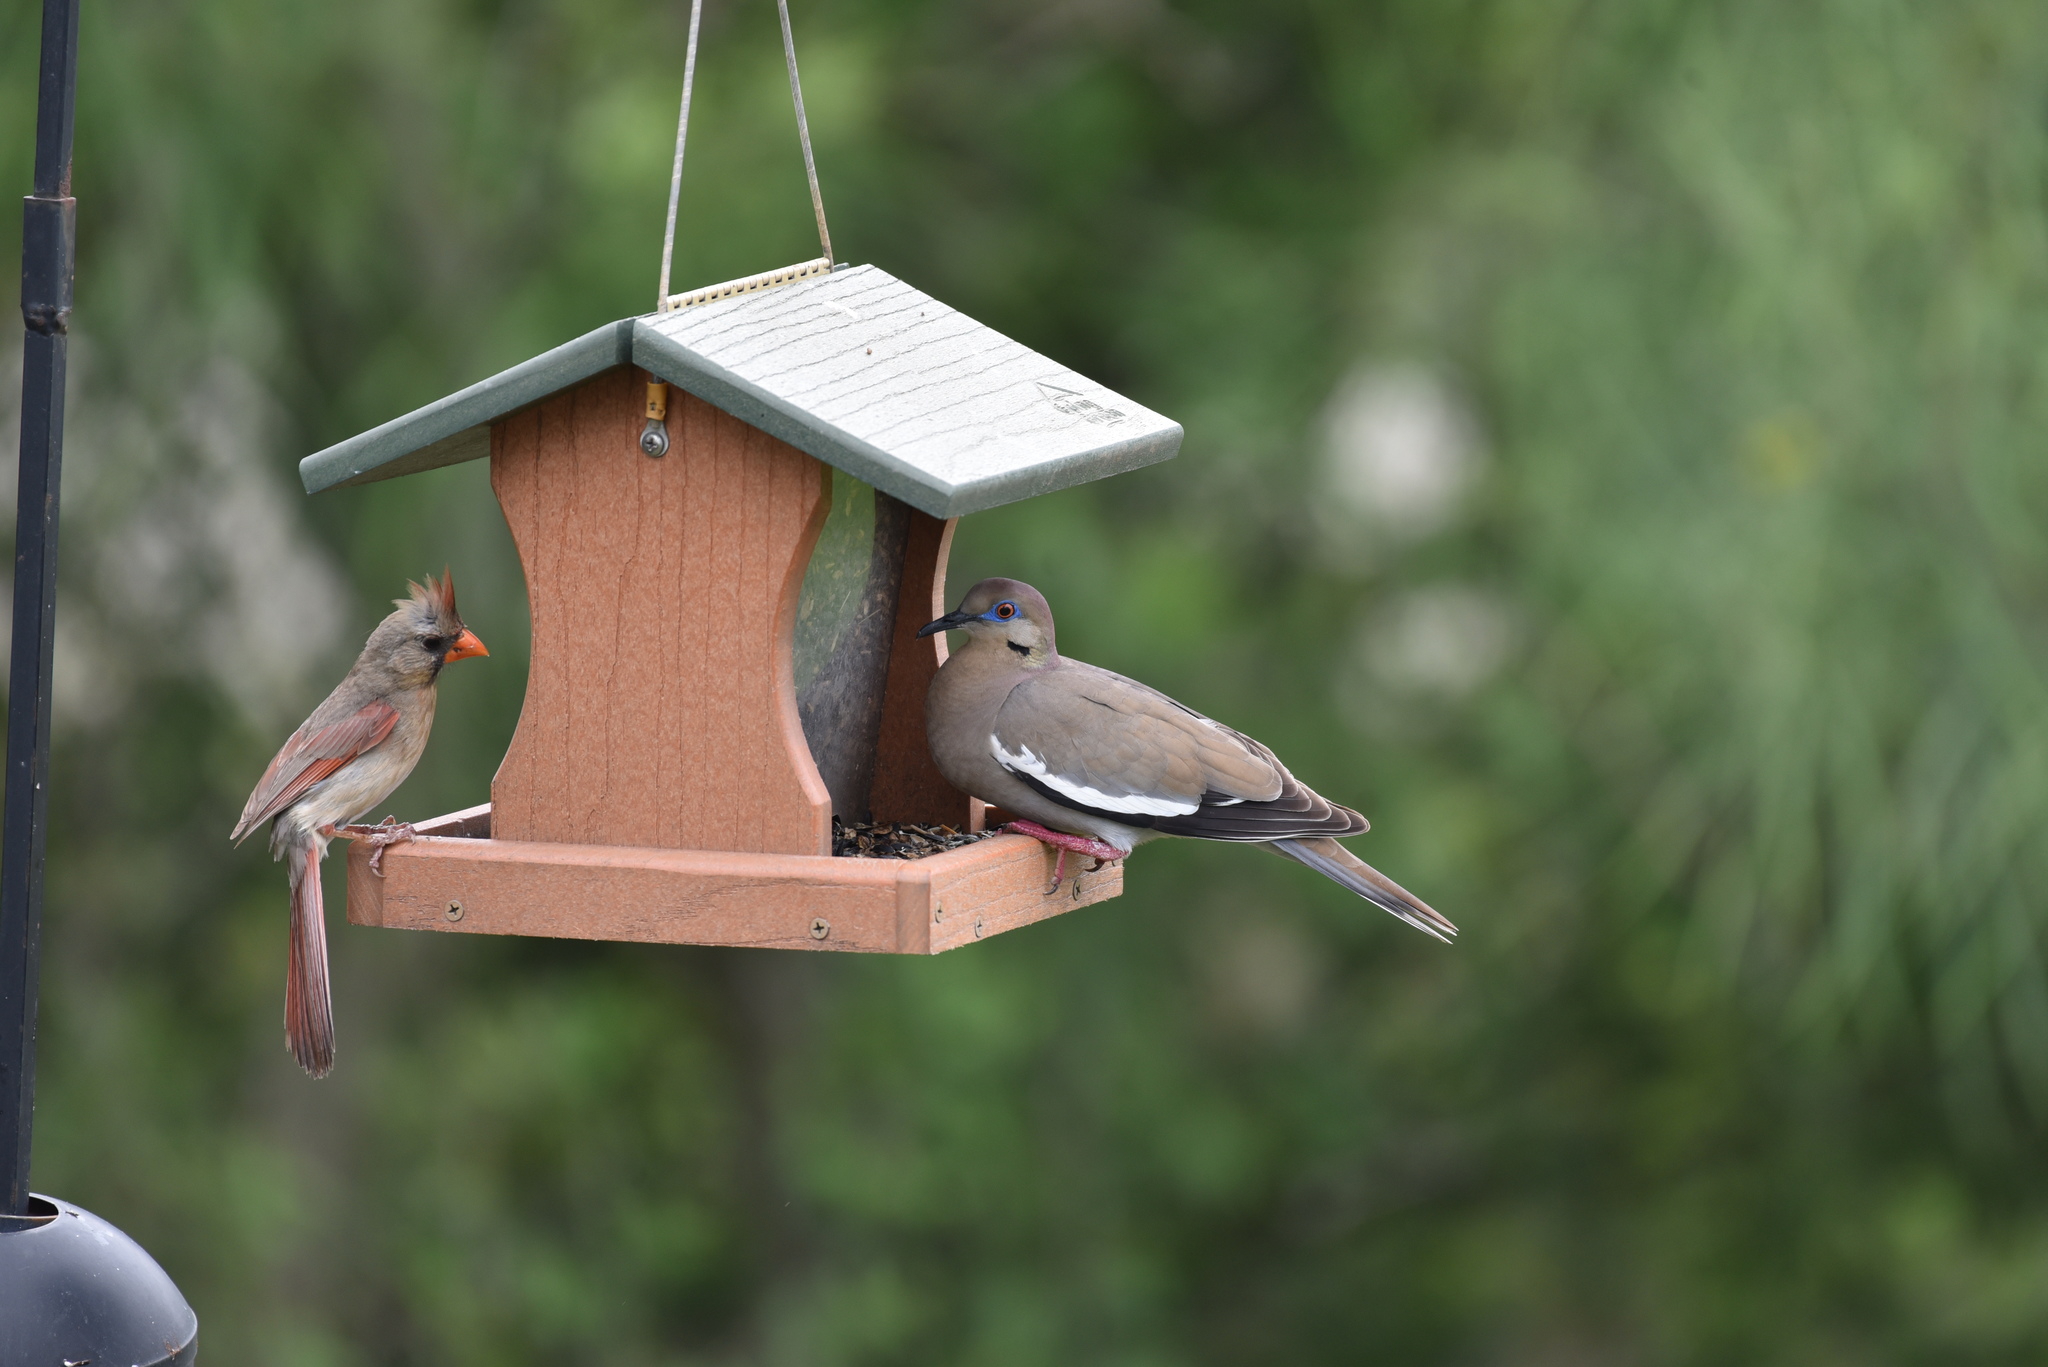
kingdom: Animalia
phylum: Chordata
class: Aves
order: Columbiformes
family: Columbidae
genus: Zenaida
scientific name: Zenaida asiatica
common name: White-winged dove
